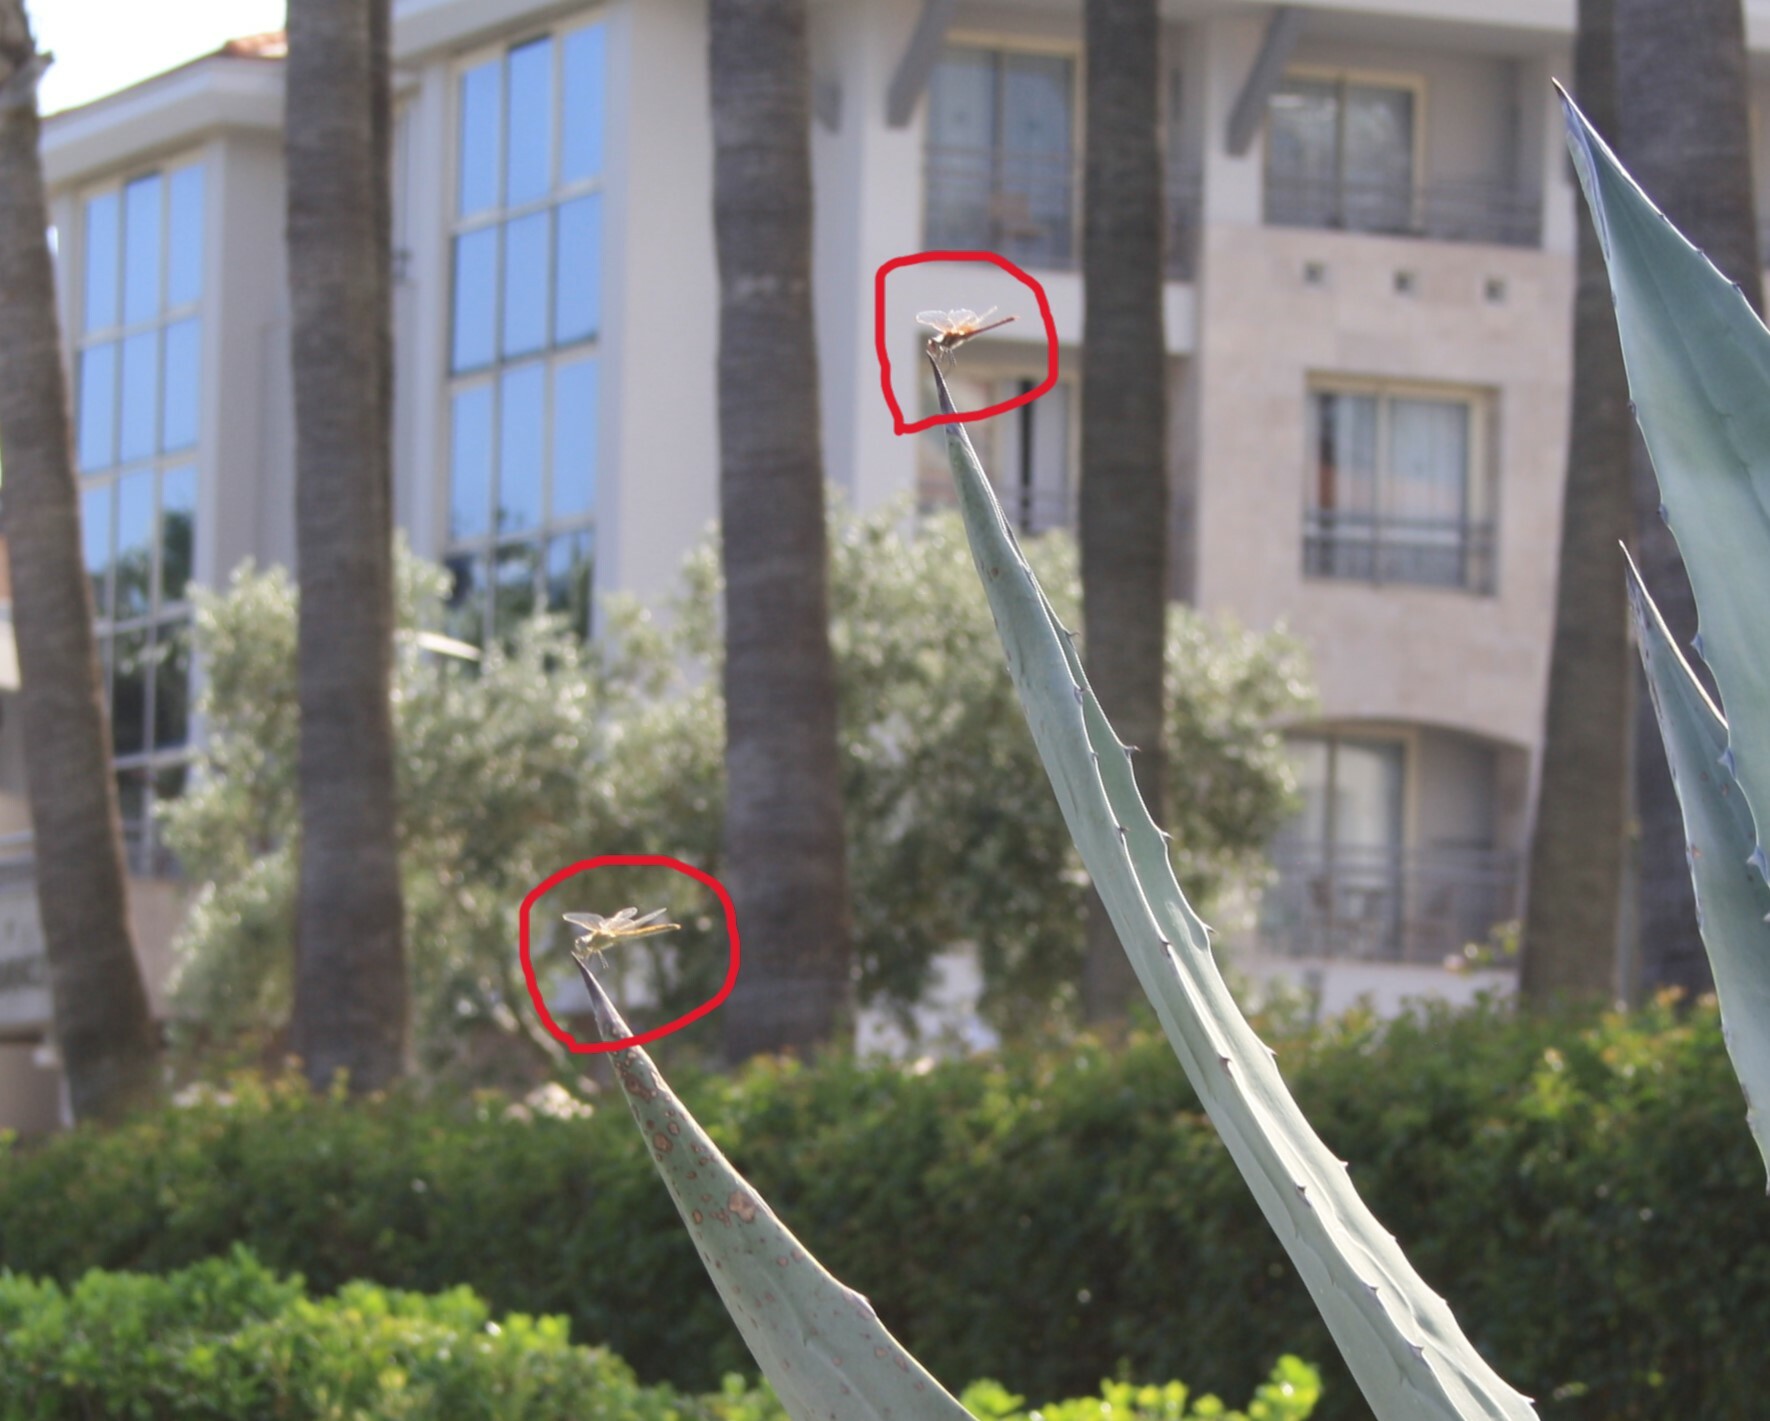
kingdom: Animalia
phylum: Arthropoda
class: Insecta
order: Odonata
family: Libellulidae
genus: Sympetrum
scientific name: Sympetrum fonscolombii
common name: Red-veined darter
